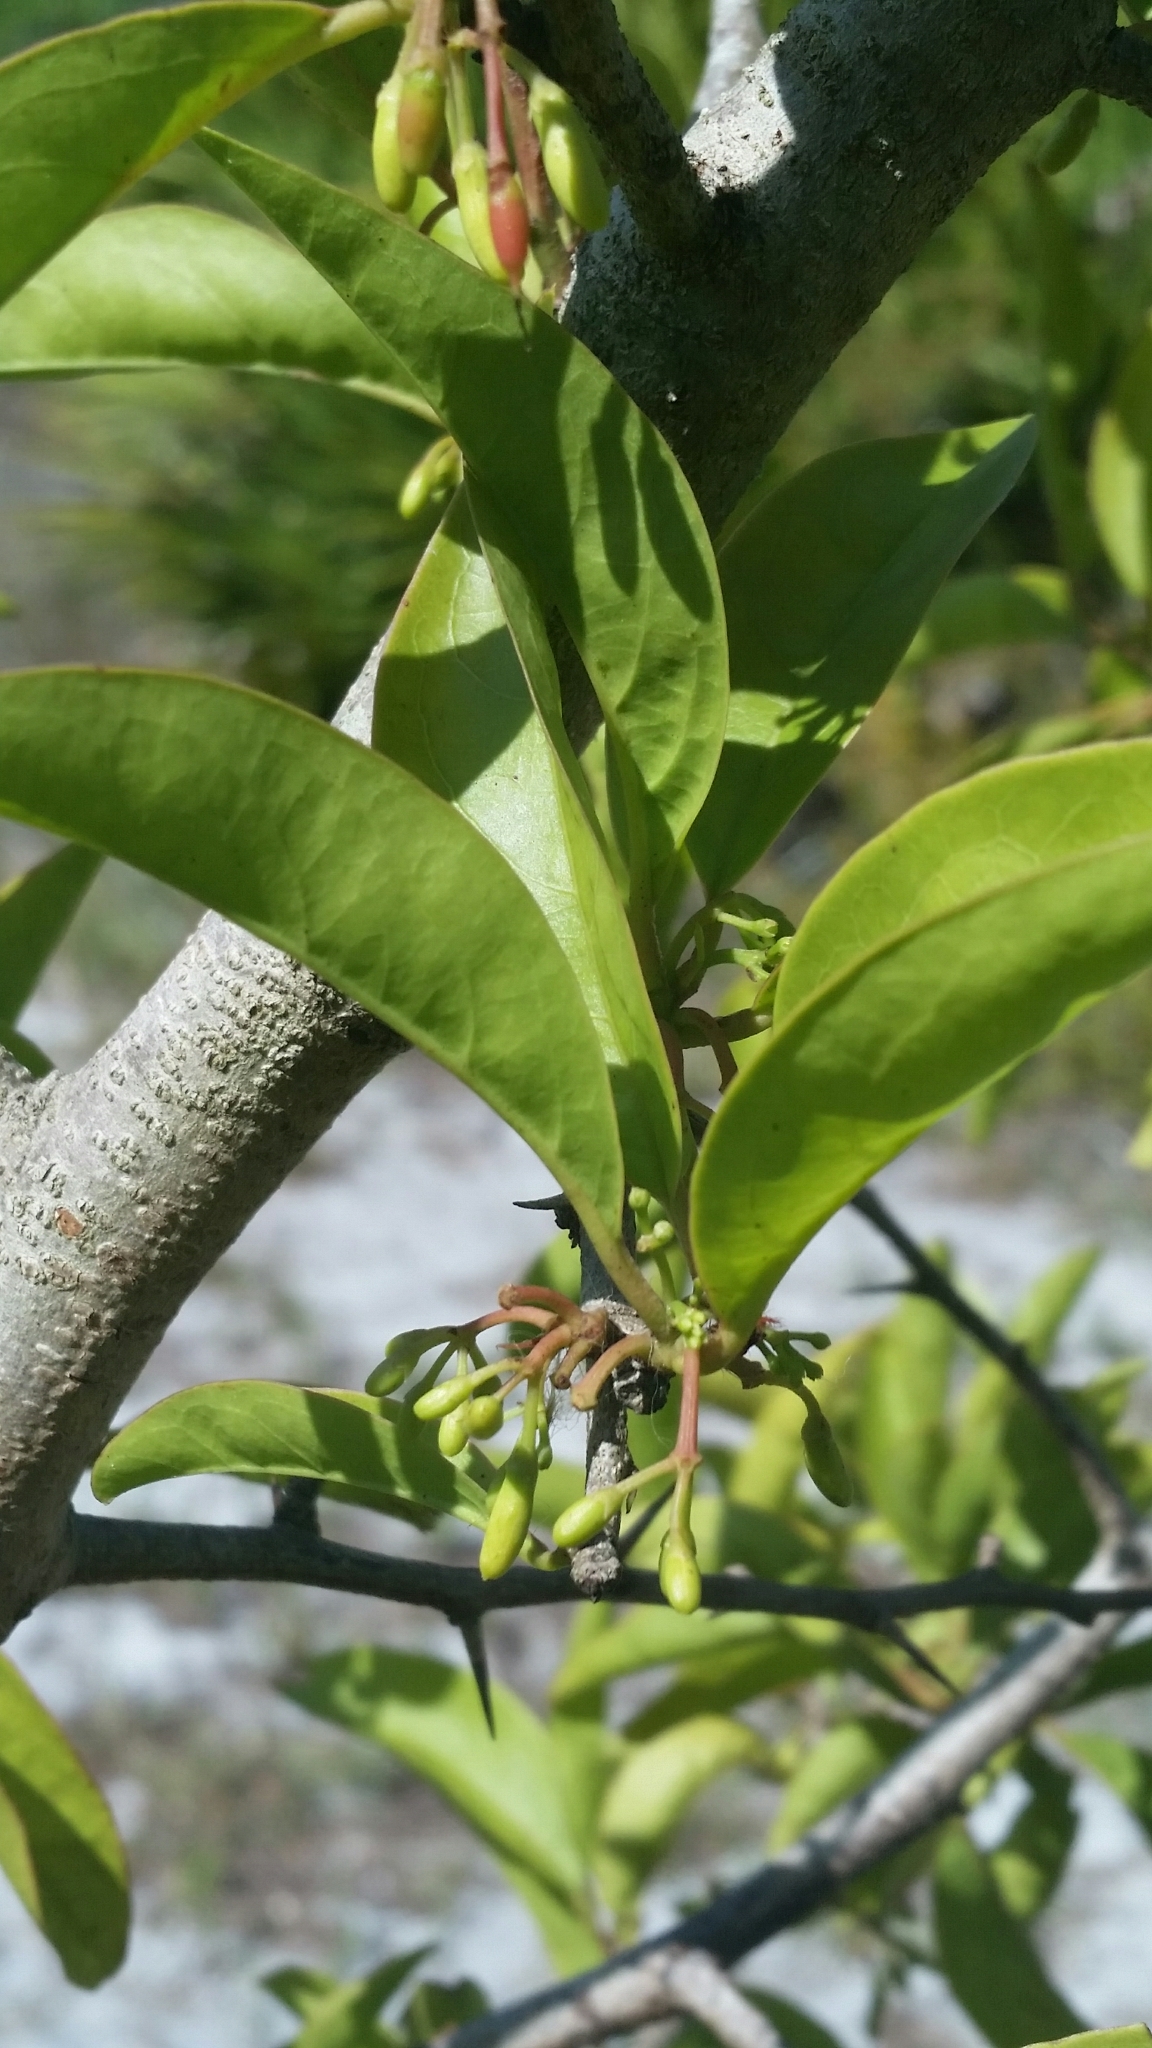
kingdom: Plantae
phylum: Tracheophyta
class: Magnoliopsida
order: Santalales
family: Ximeniaceae
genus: Ximenia
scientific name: Ximenia americana
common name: Tallowwood
